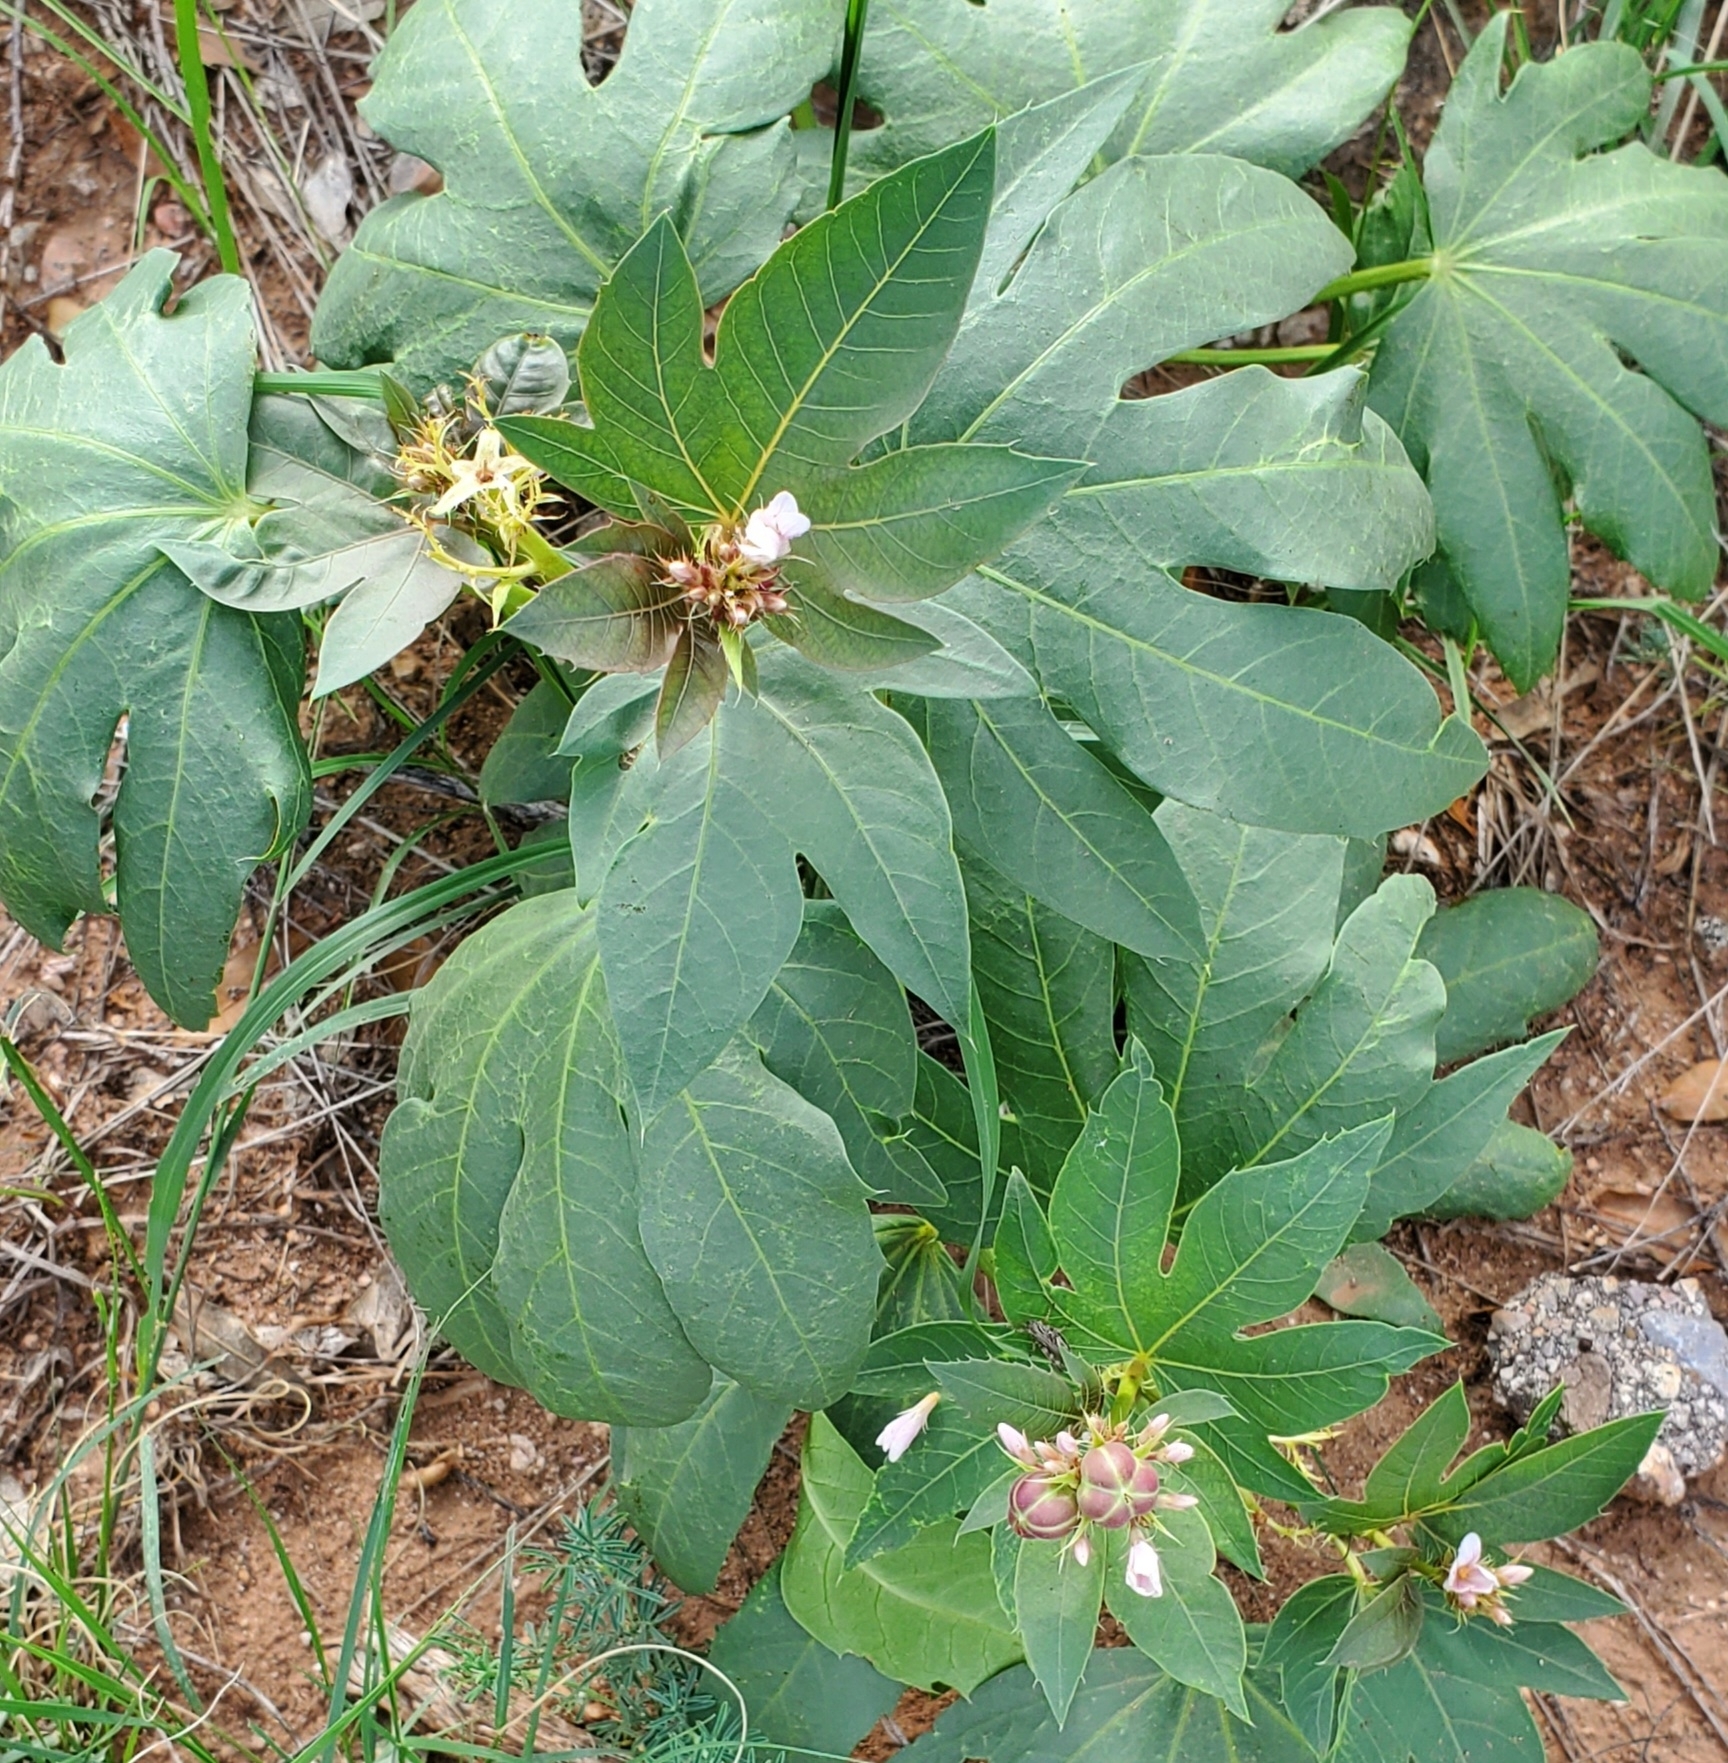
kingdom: Plantae
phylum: Tracheophyta
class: Magnoliopsida
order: Malpighiales
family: Euphorbiaceae
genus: Jatropha
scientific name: Jatropha macrorhiza
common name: Ragged nettlespurge
